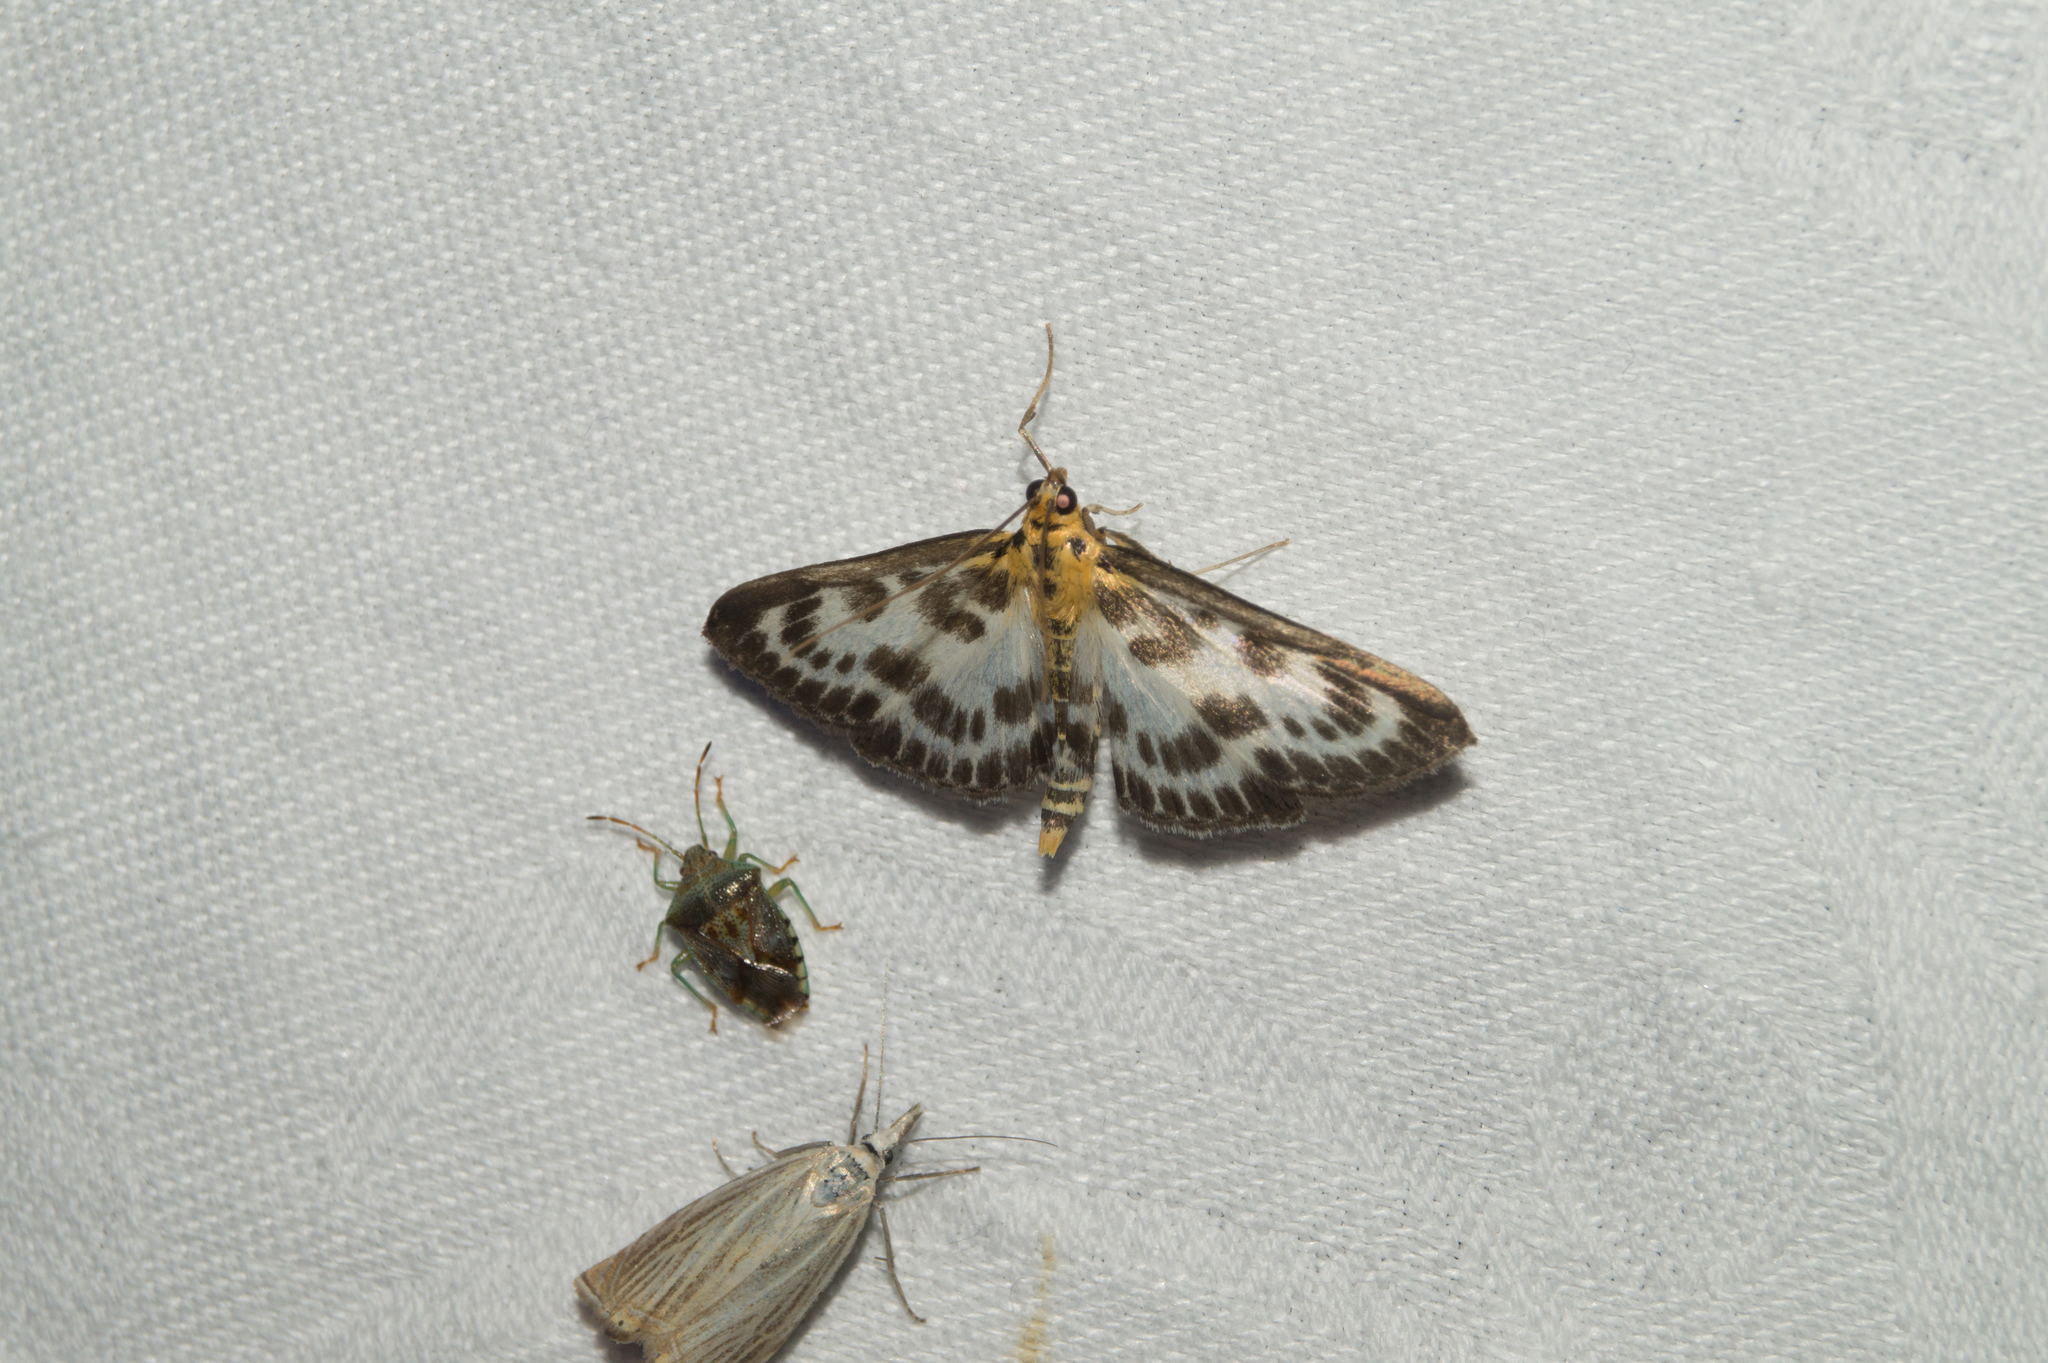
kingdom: Animalia
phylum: Arthropoda
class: Insecta
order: Lepidoptera
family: Crambidae
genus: Anania
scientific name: Anania hortulata
